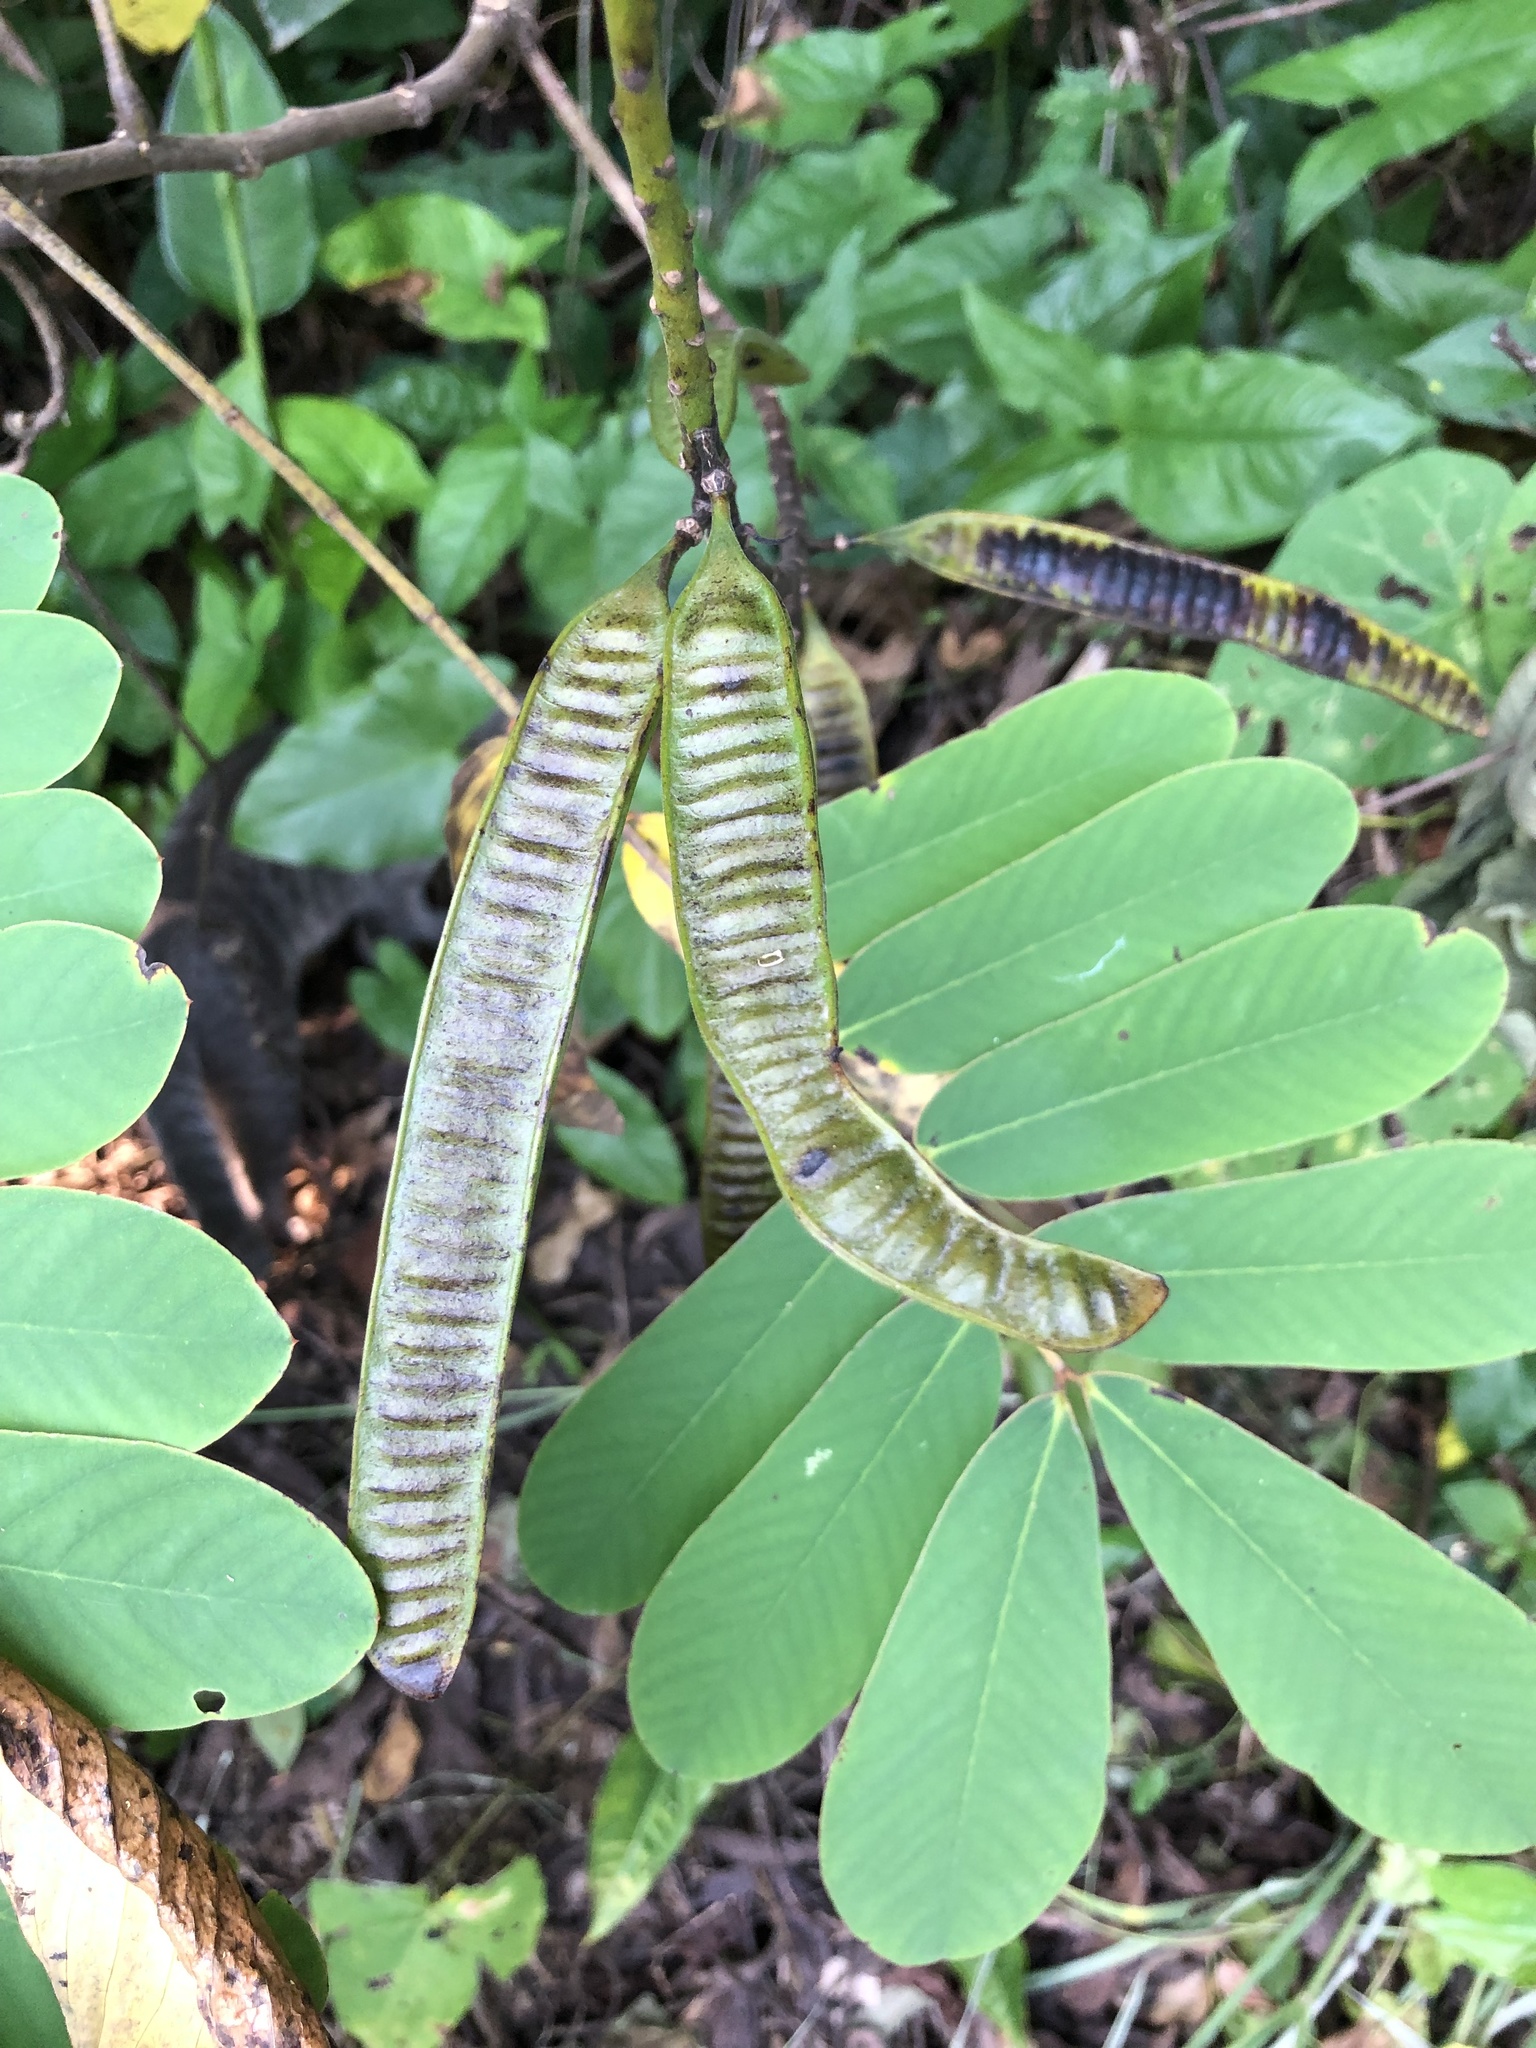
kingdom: Plantae
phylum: Tracheophyta
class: Magnoliopsida
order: Fabales
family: Fabaceae
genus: Senna
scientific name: Senna reticulata
